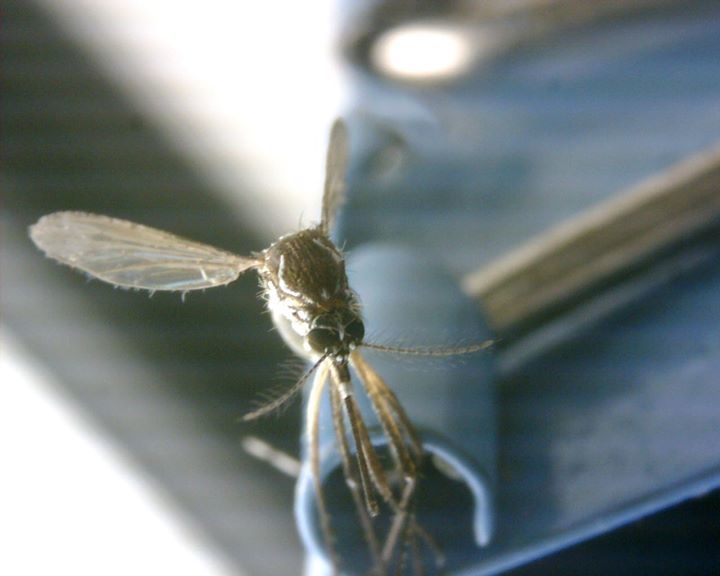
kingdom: Animalia
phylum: Arthropoda
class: Insecta
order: Diptera
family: Culicidae
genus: Aedes
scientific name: Aedes aegypti
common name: Yellow fever mosquito
